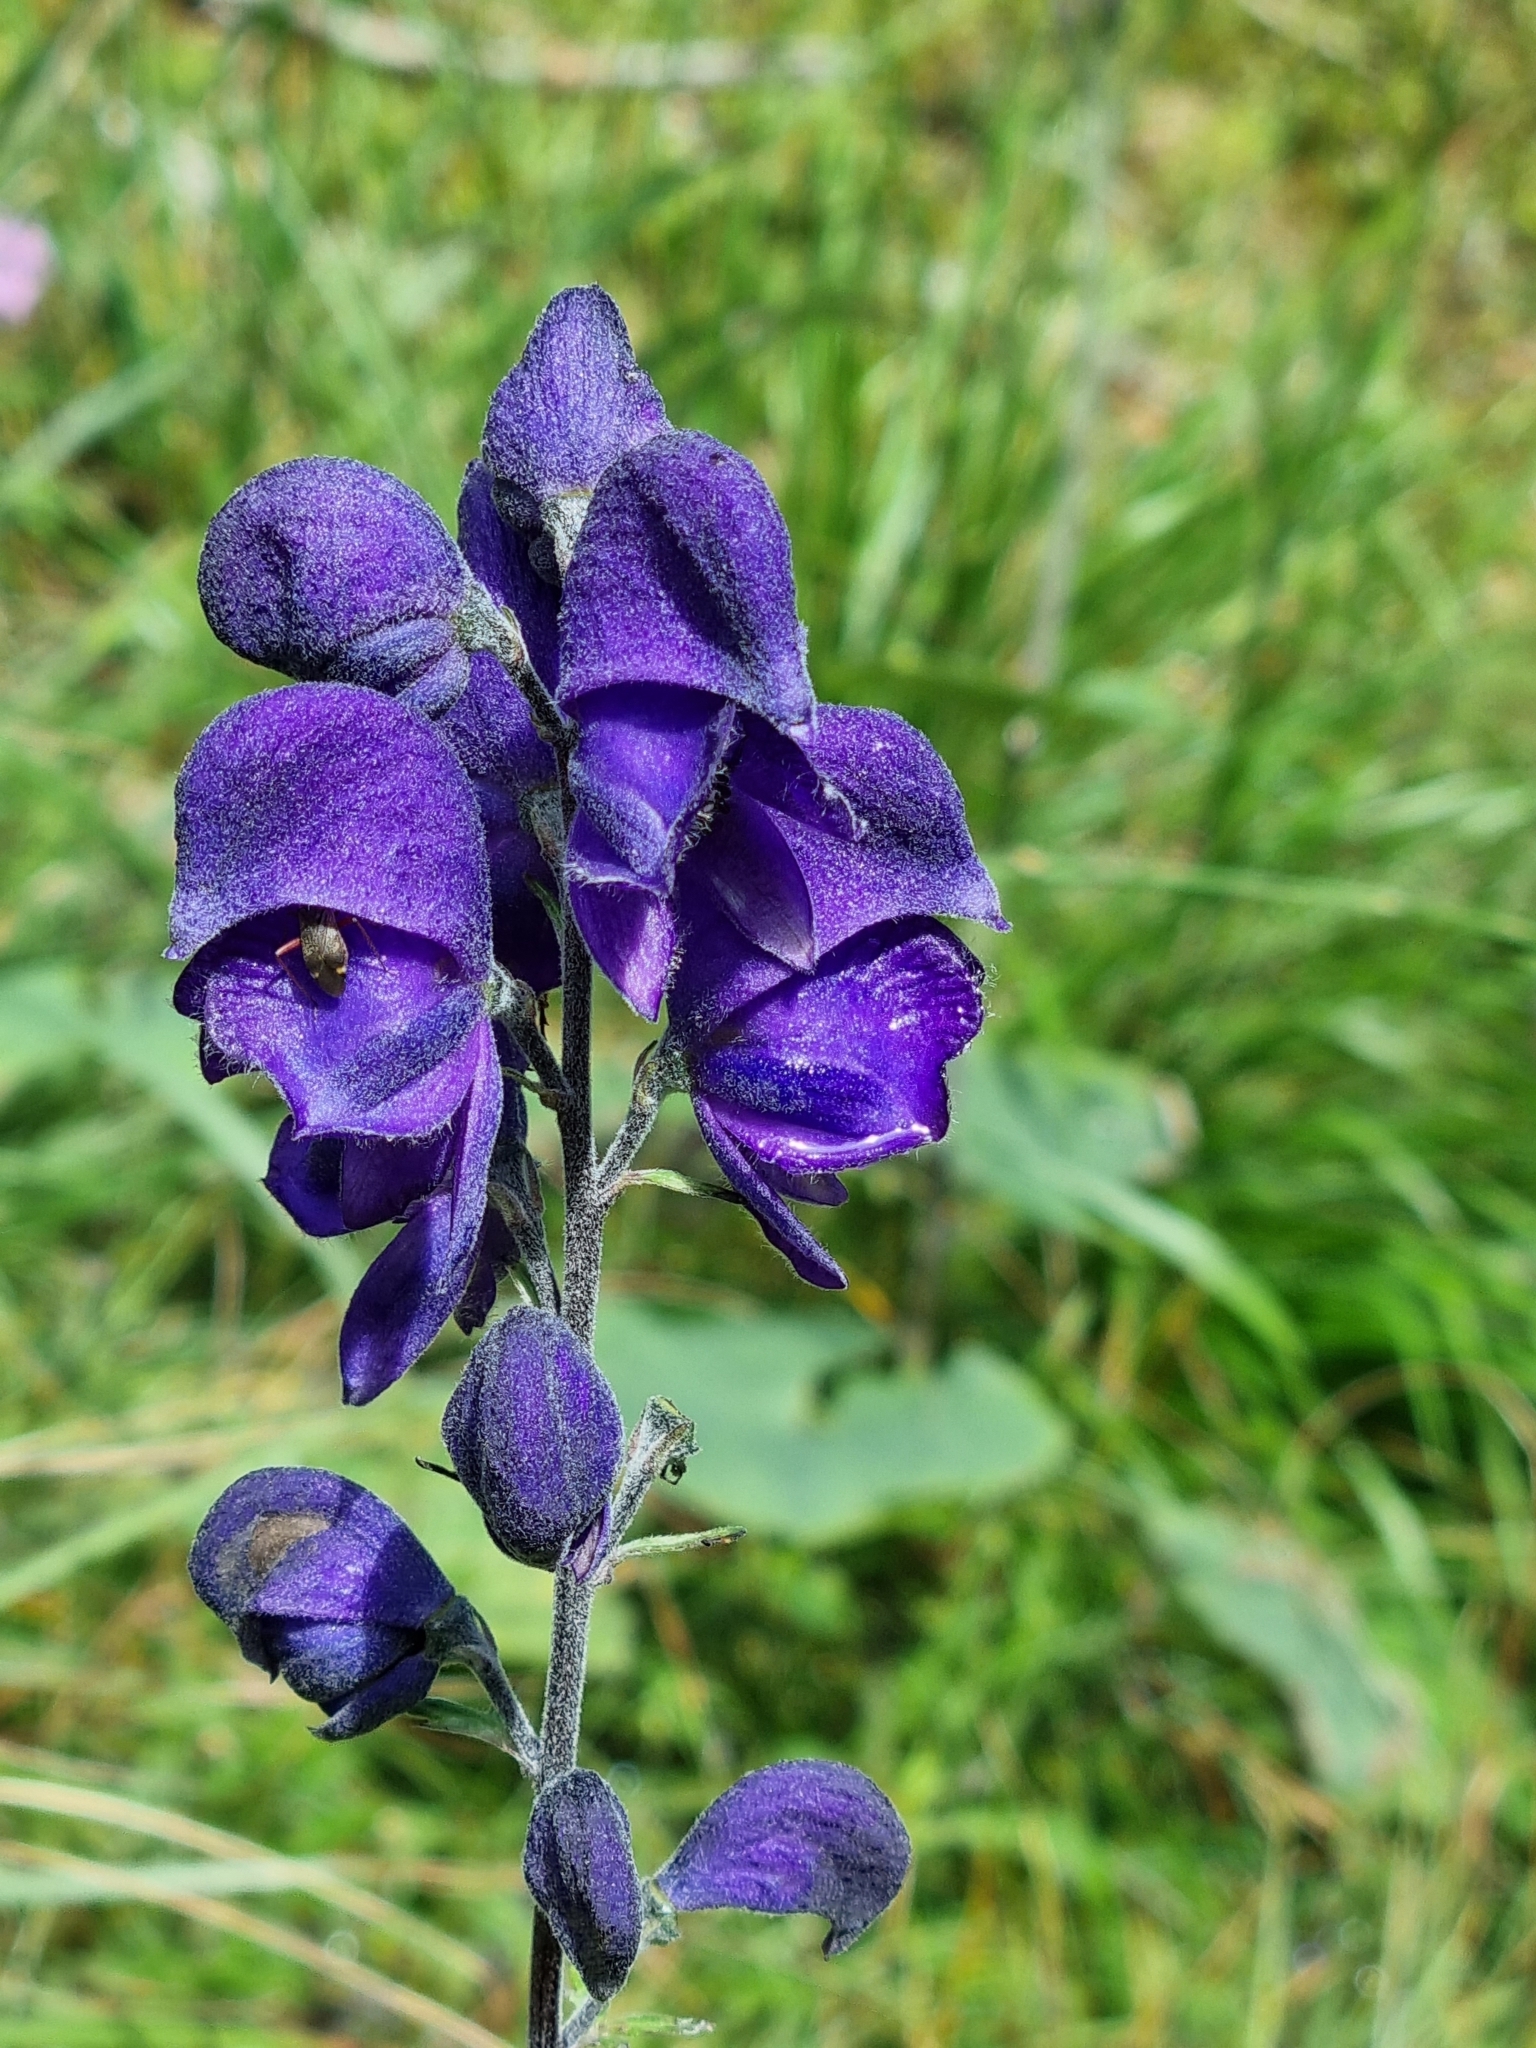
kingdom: Plantae
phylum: Tracheophyta
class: Magnoliopsida
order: Ranunculales
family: Ranunculaceae
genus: Aconitum
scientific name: Aconitum napellus
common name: Garden monkshood
